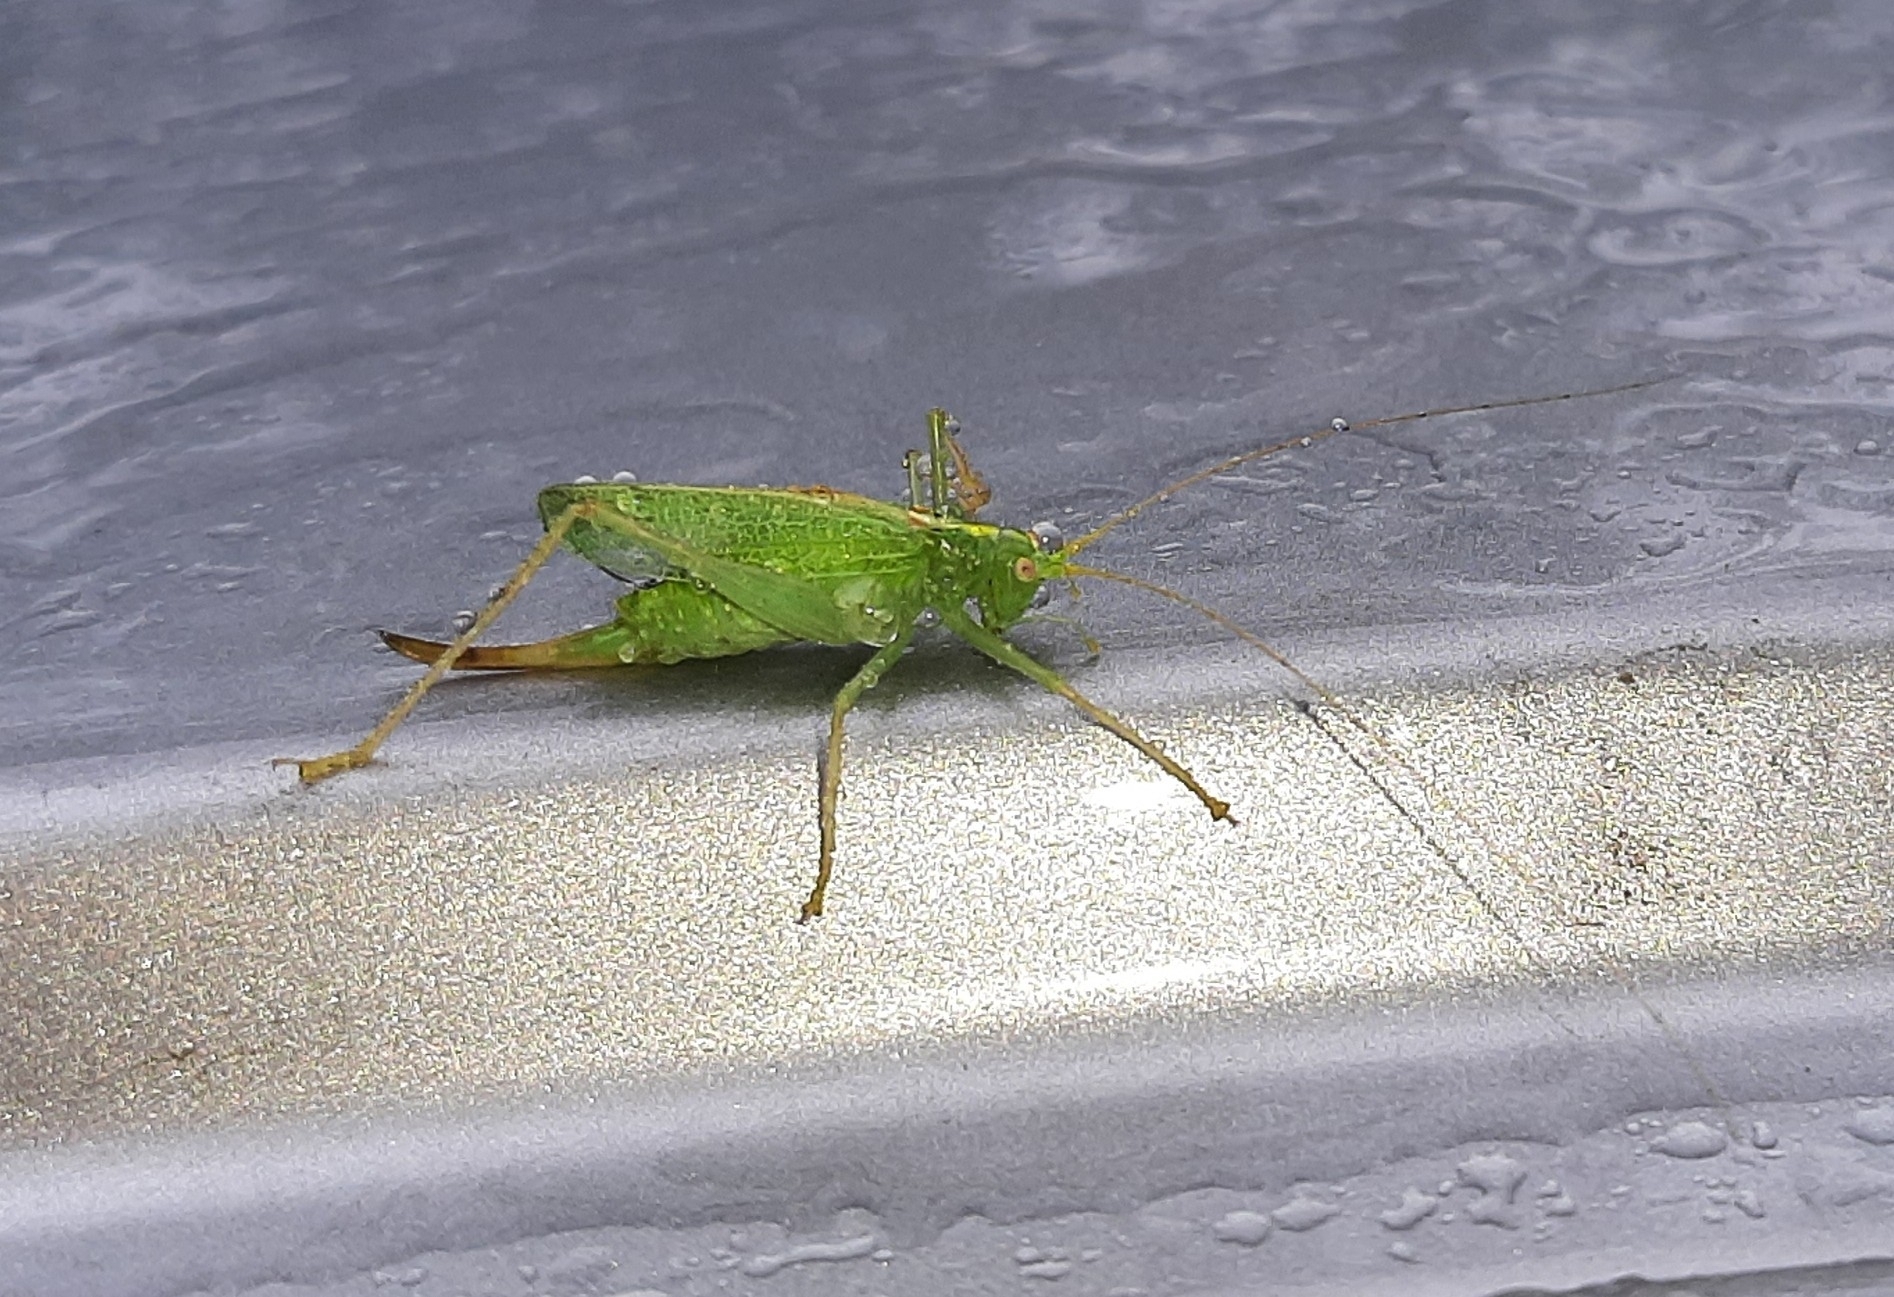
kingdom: Animalia
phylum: Arthropoda
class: Insecta
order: Orthoptera
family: Tettigoniidae
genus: Meconema
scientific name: Meconema thalassinum
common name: Oak bush-cricket
